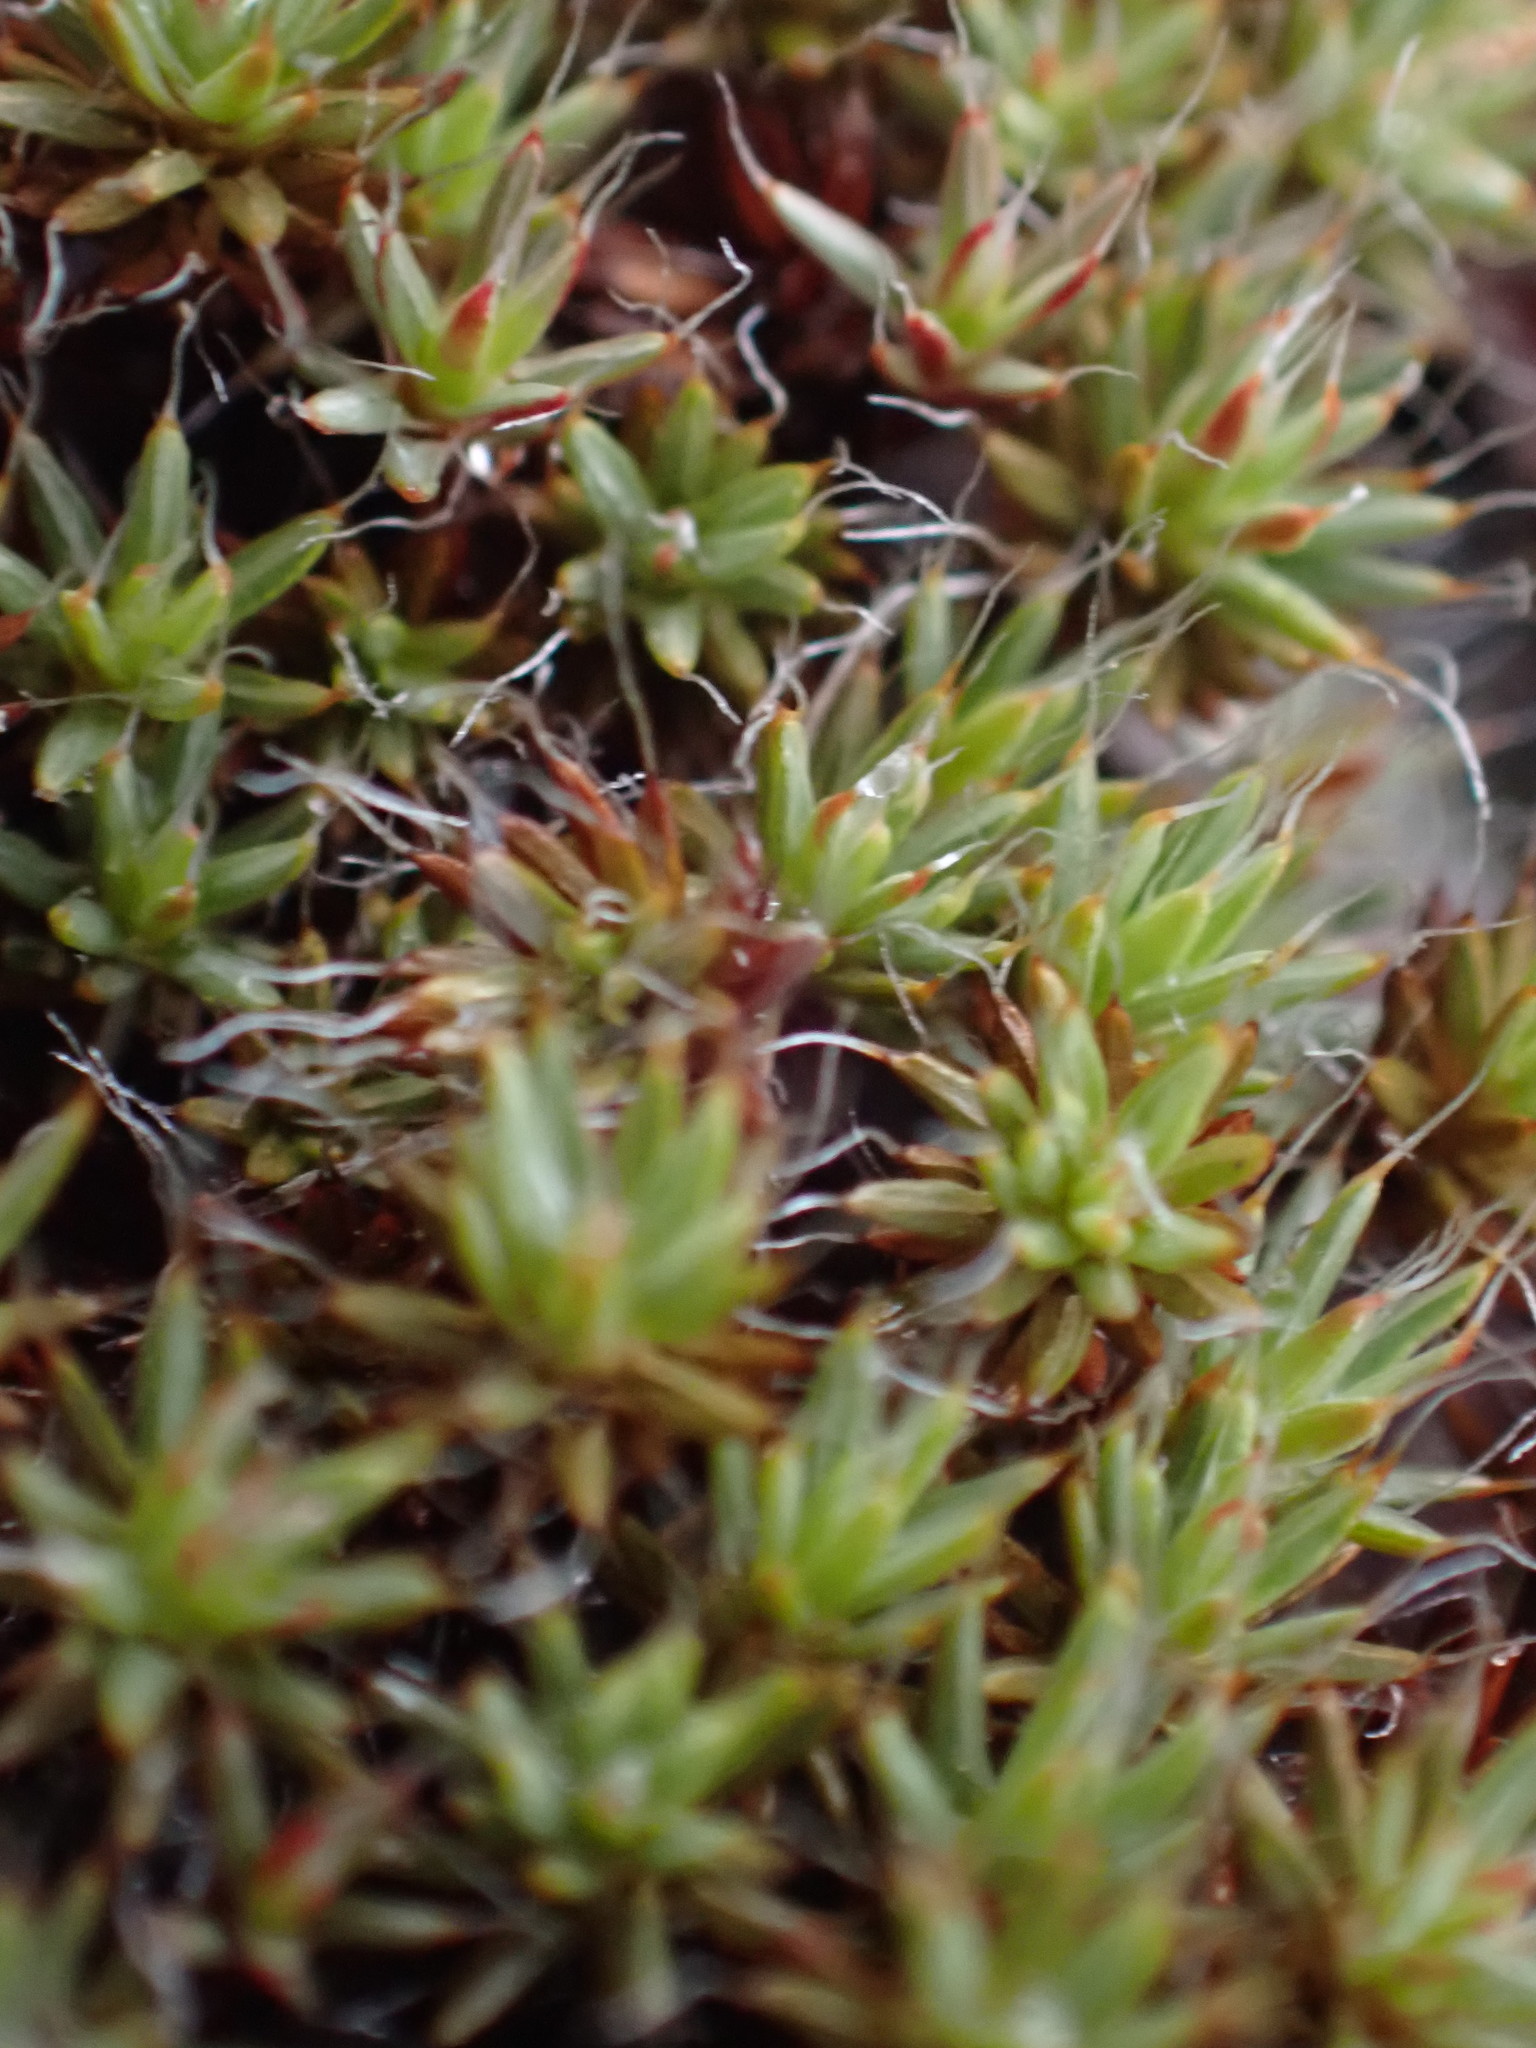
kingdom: Plantae
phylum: Bryophyta
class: Polytrichopsida
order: Polytrichales
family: Polytrichaceae
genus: Polytrichum
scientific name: Polytrichum piliferum
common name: Bristly haircap
